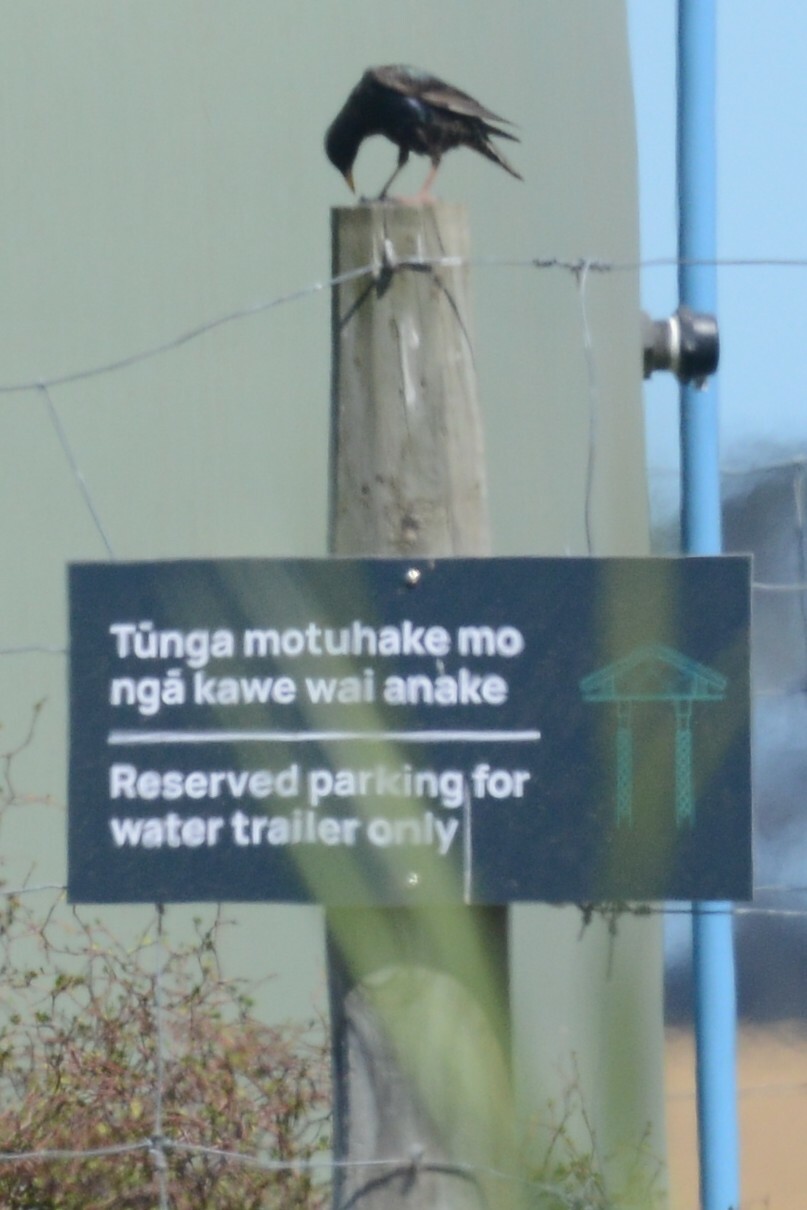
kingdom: Animalia
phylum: Chordata
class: Aves
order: Passeriformes
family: Sturnidae
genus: Sturnus
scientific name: Sturnus vulgaris
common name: Common starling
